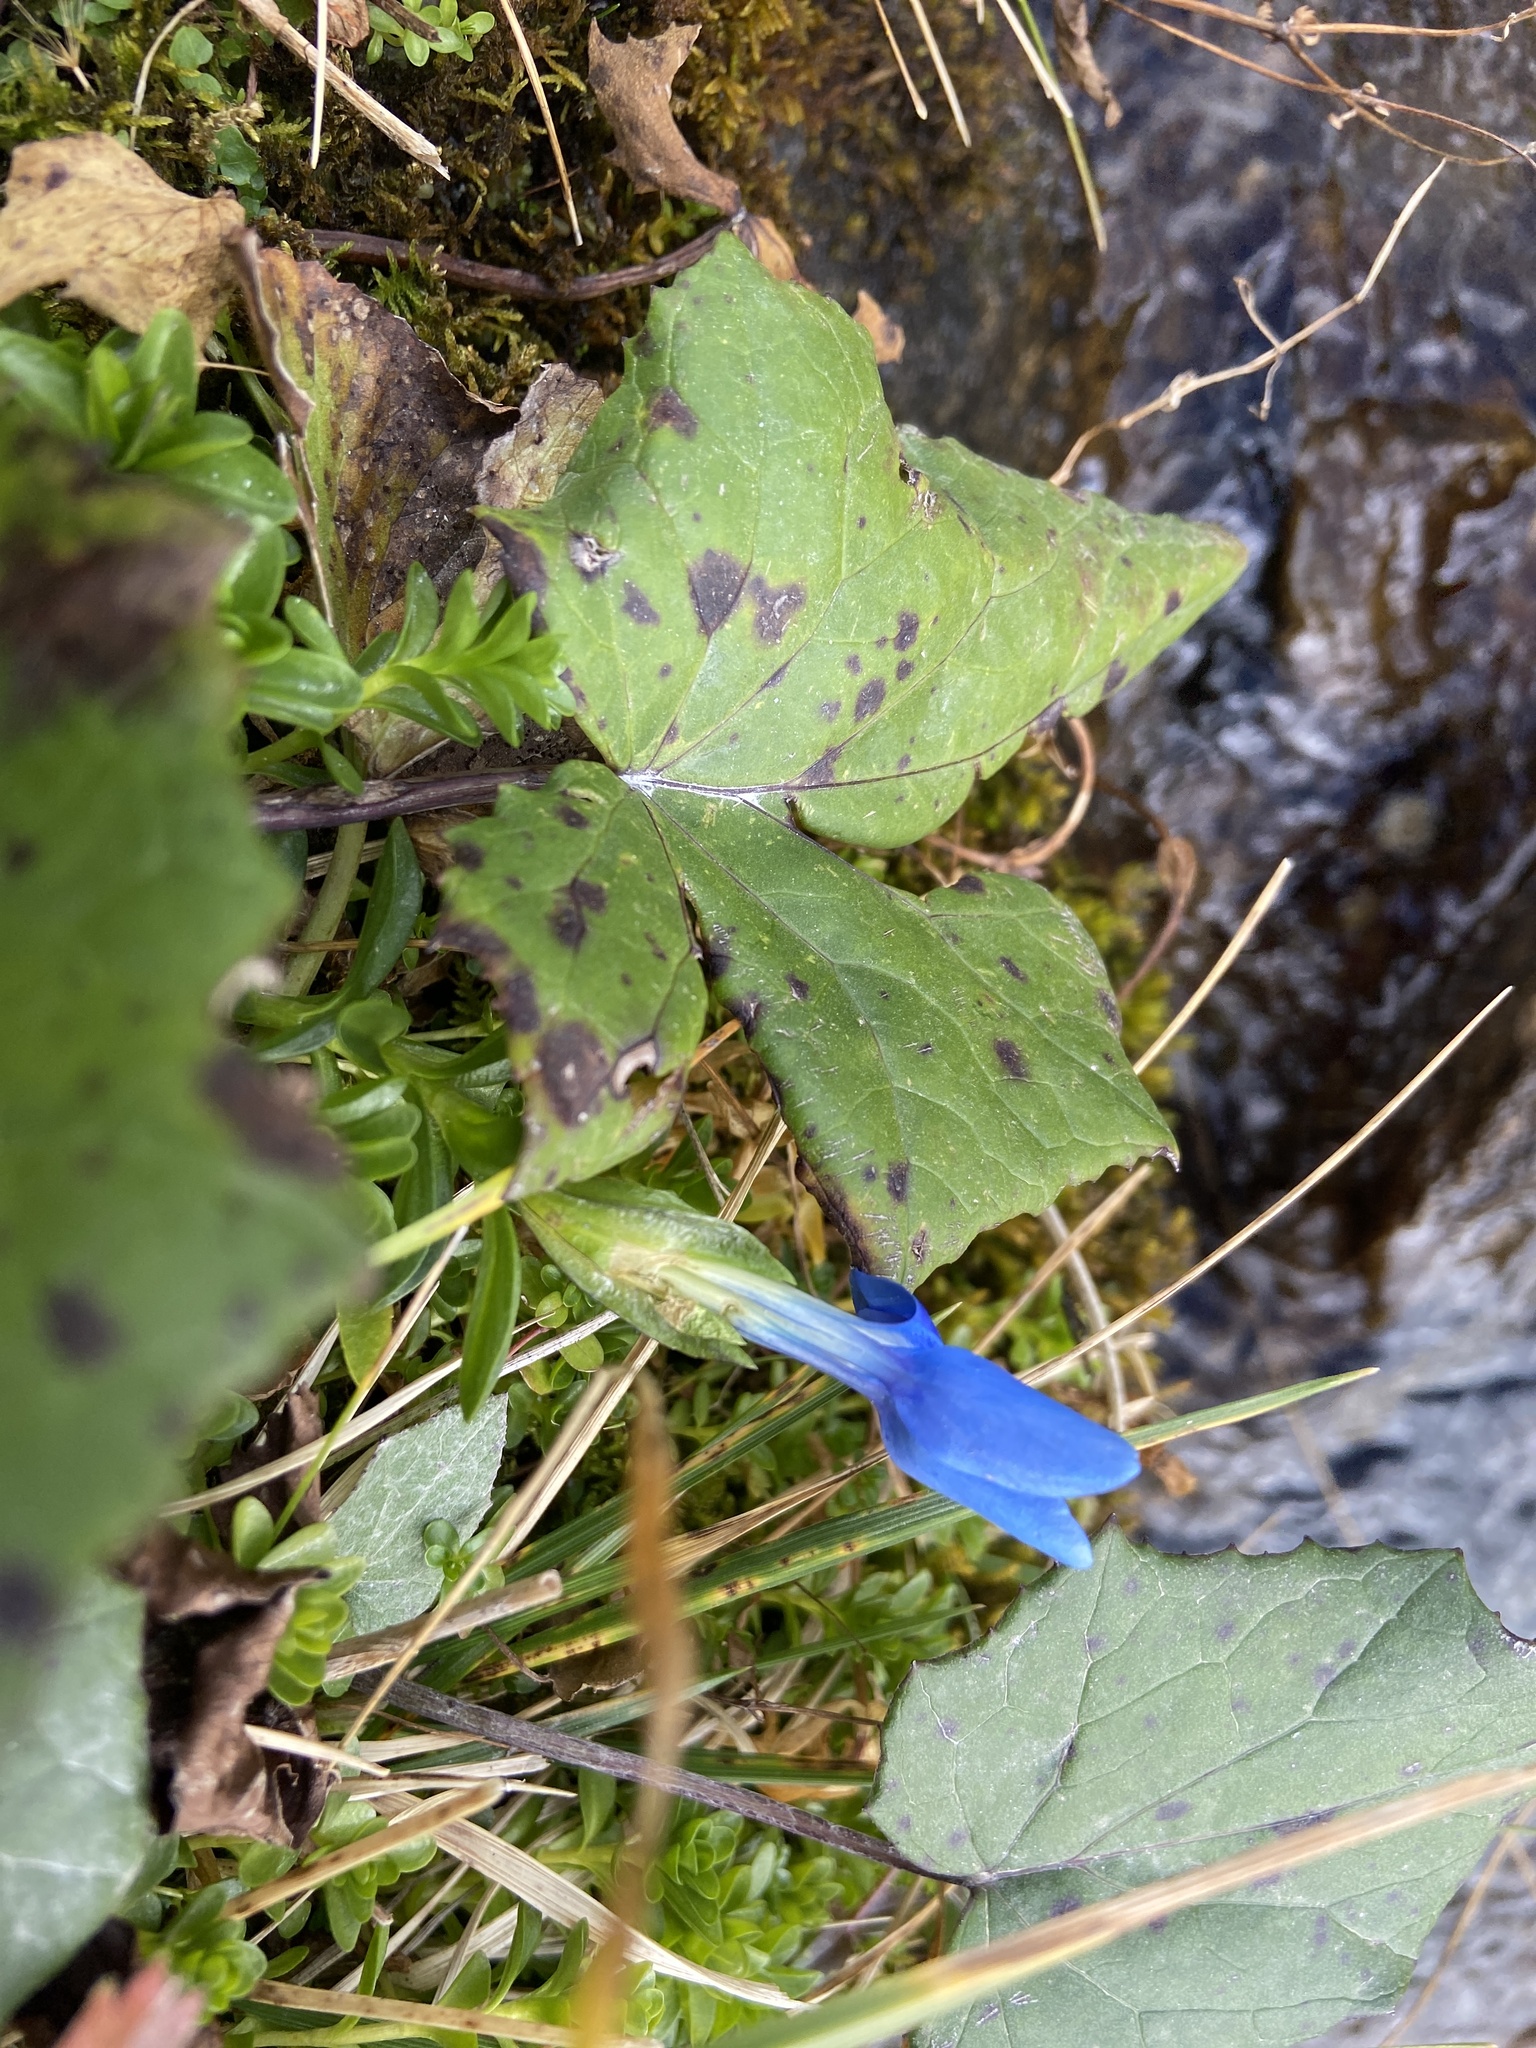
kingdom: Plantae
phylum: Tracheophyta
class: Magnoliopsida
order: Gentianales
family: Gentianaceae
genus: Gentiana
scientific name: Gentiana bavarica
